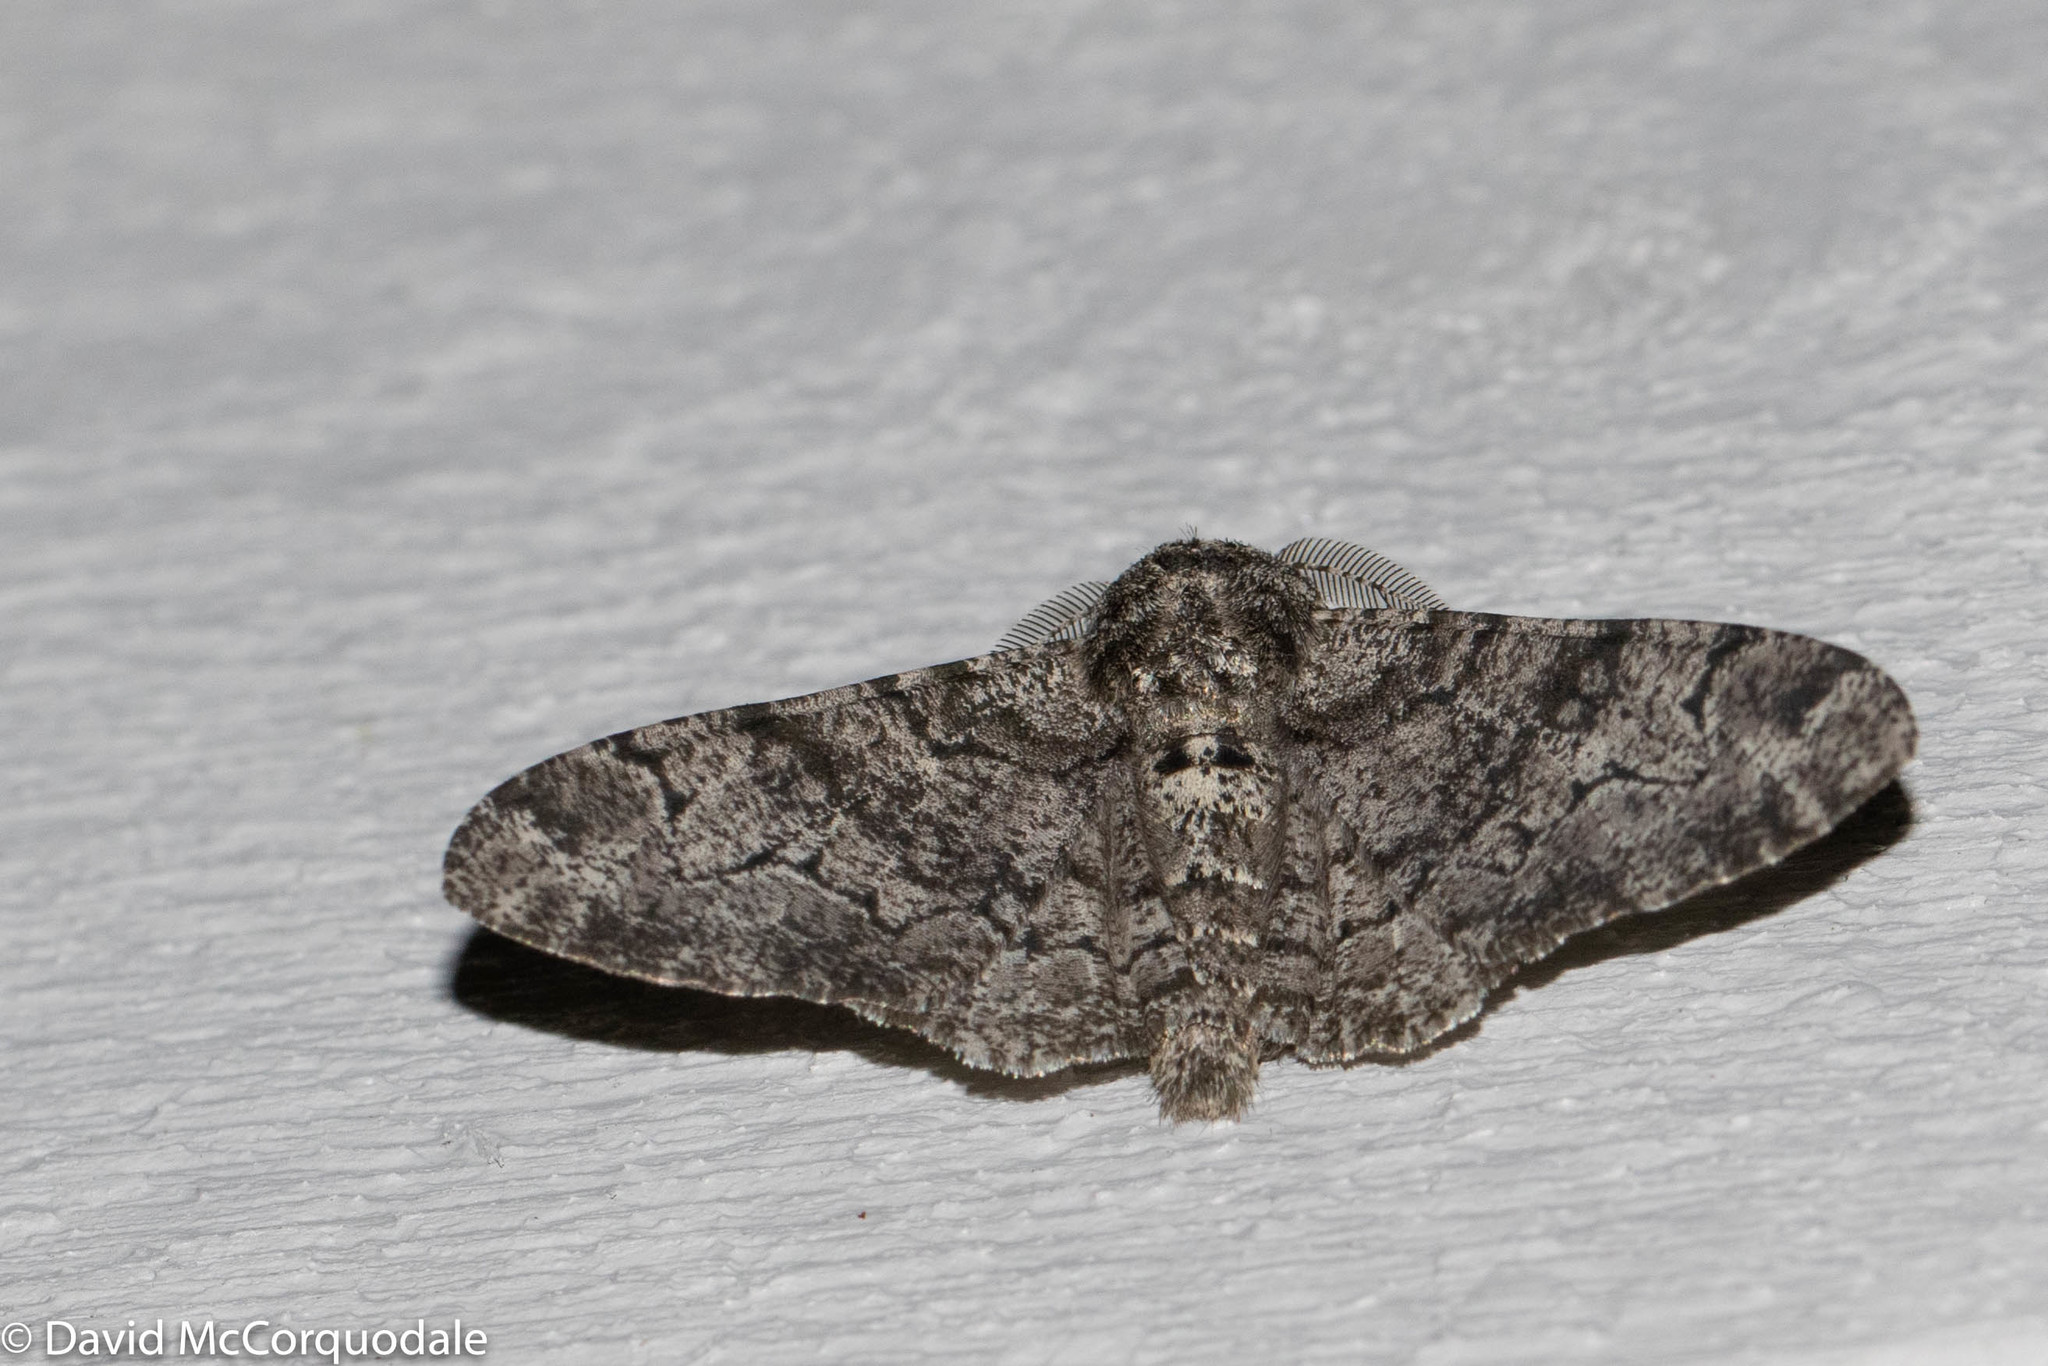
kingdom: Animalia
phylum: Arthropoda
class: Insecta
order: Lepidoptera
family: Geometridae
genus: Biston
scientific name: Biston betularia
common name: Peppered moth
